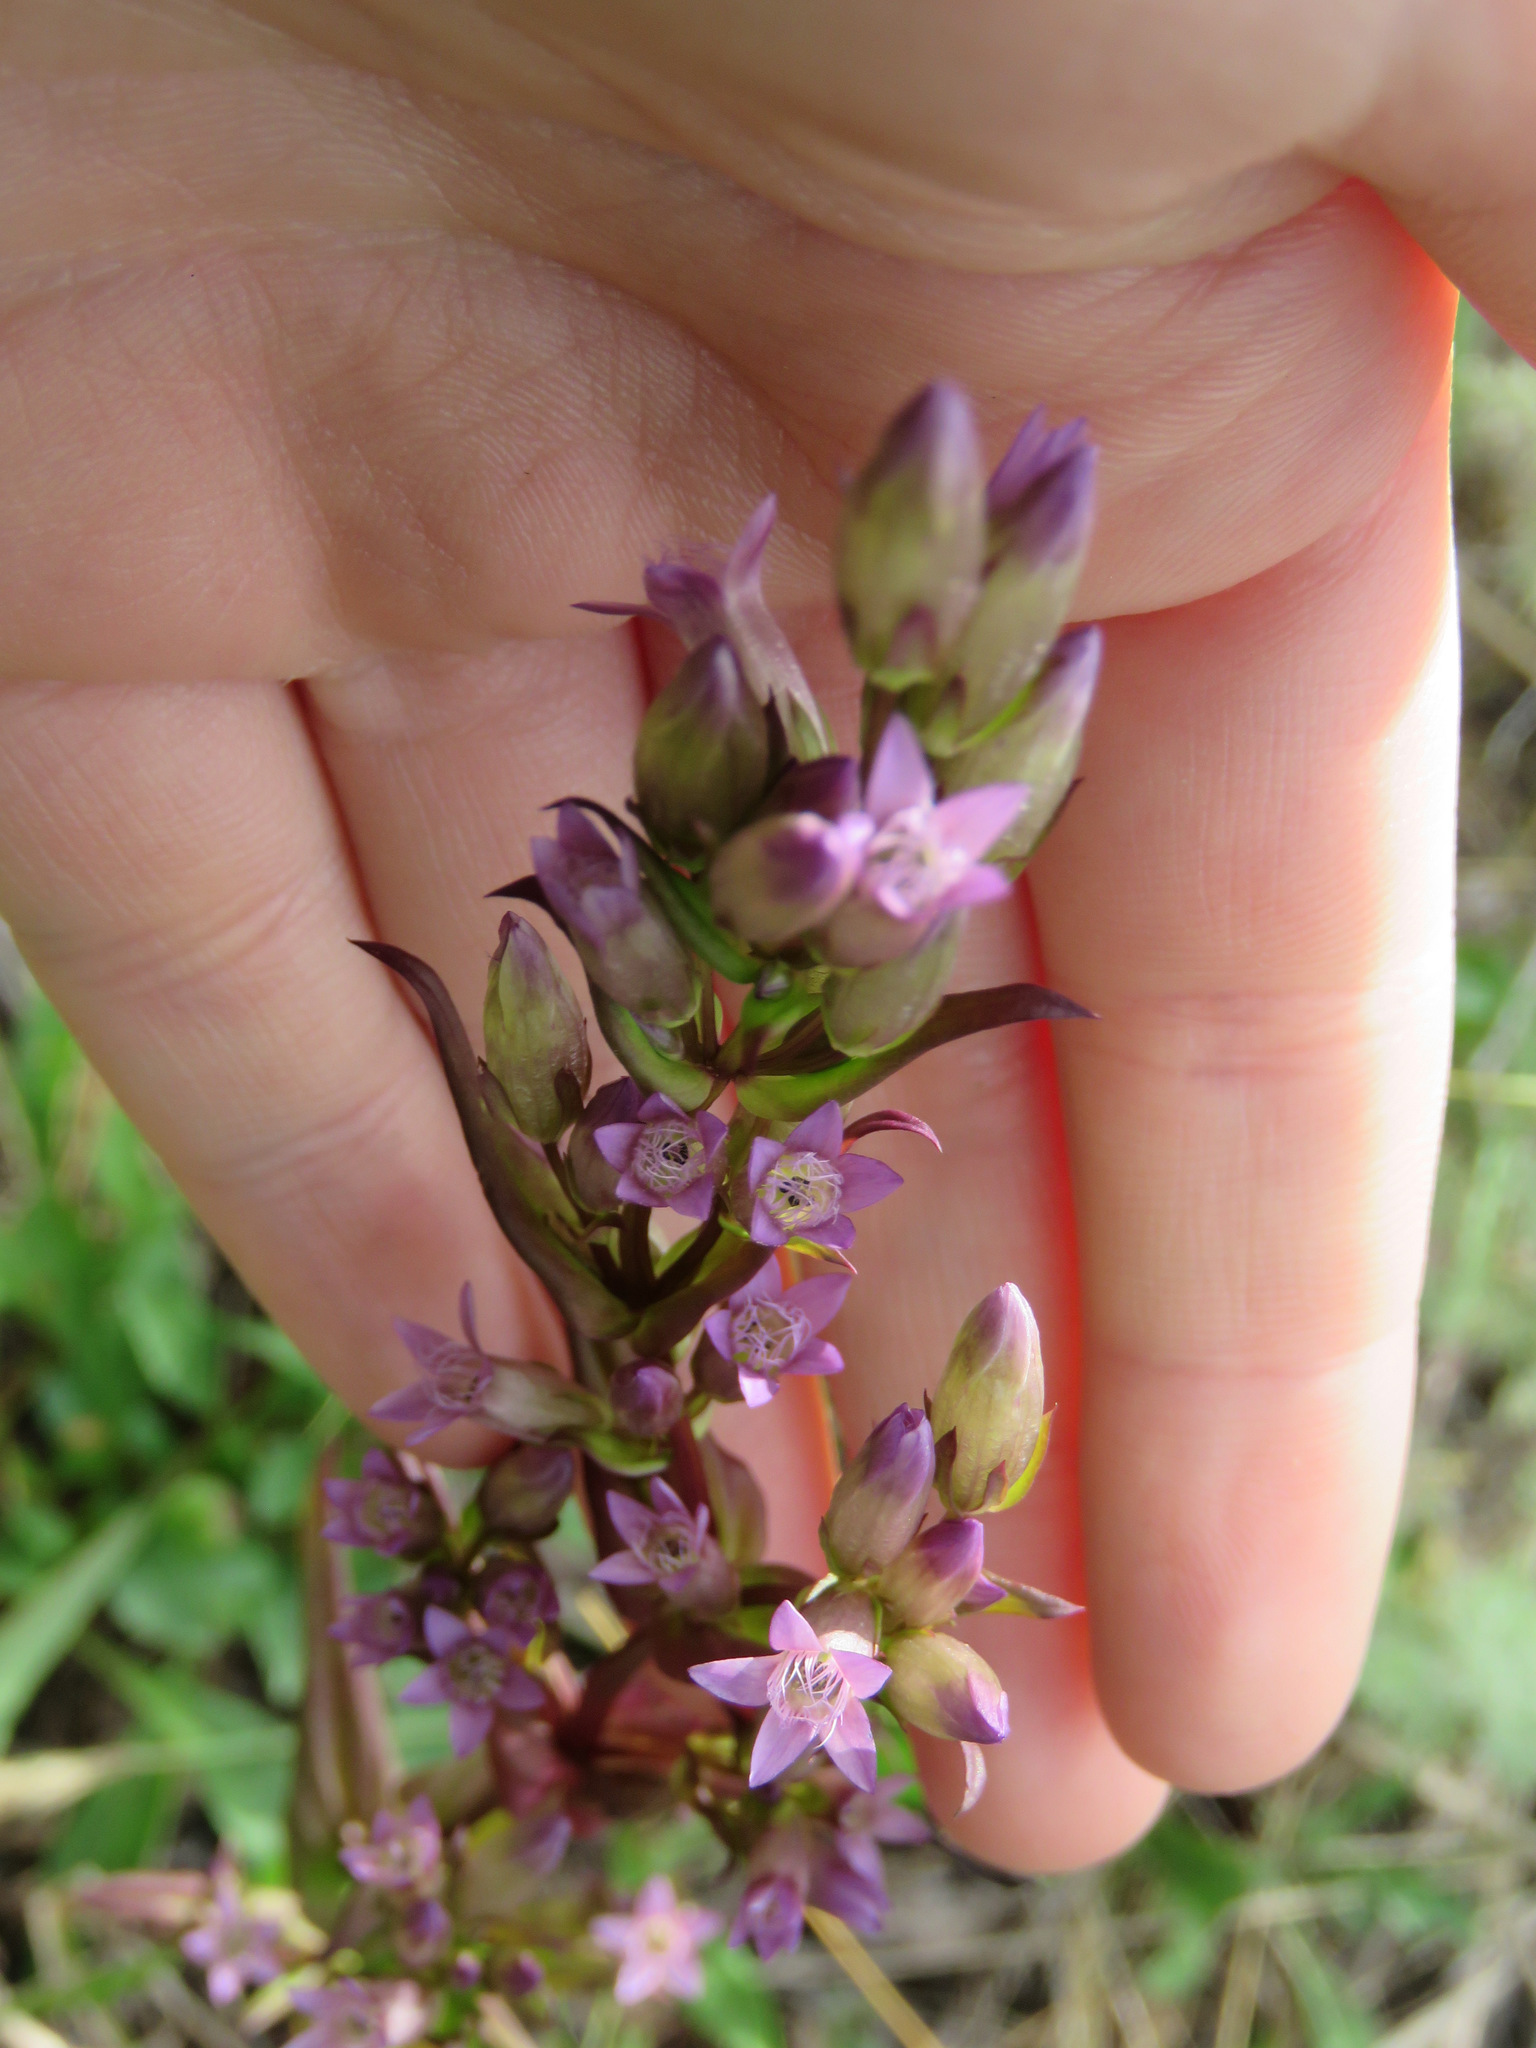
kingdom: Plantae
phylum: Tracheophyta
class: Magnoliopsida
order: Gentianales
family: Gentianaceae
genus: Gentianella
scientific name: Gentianella amarella
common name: Autumn gentian
